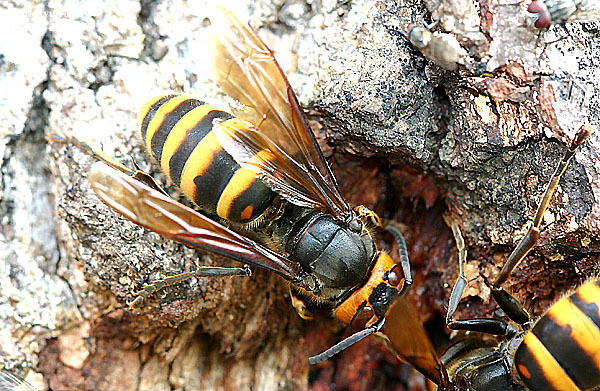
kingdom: Animalia
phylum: Arthropoda
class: Insecta
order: Hymenoptera
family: Vespidae
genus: Vespa
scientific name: Vespa analis
